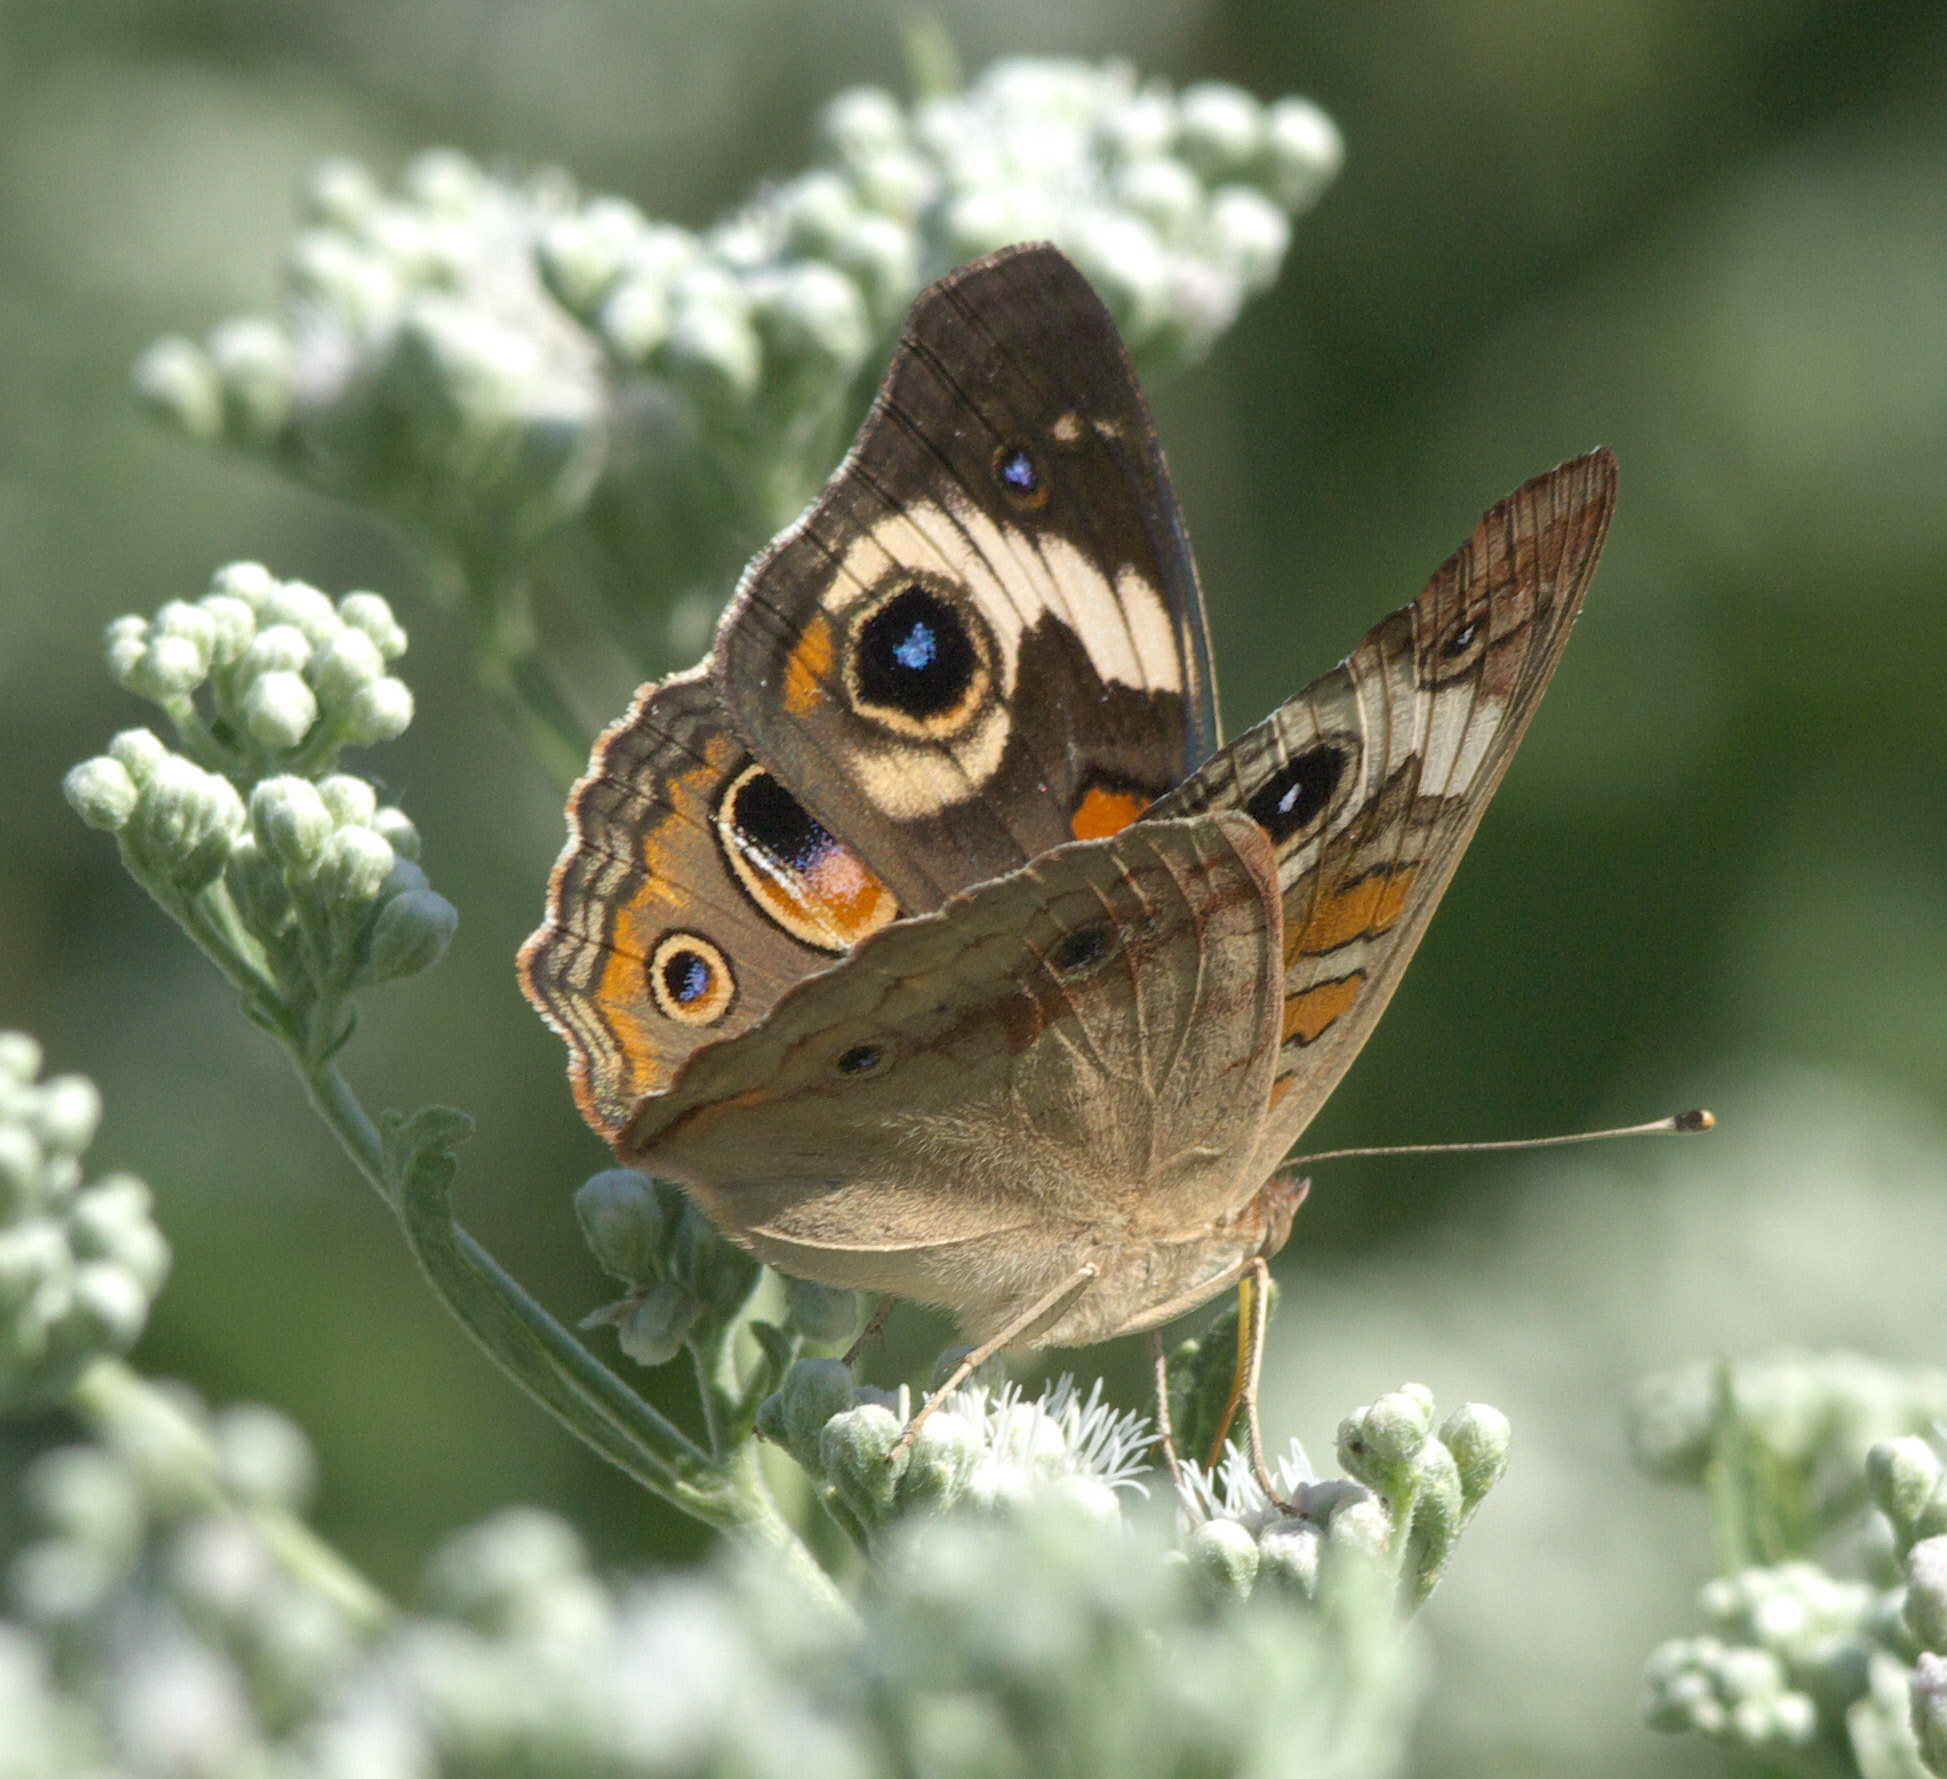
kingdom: Animalia
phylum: Arthropoda
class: Insecta
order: Lepidoptera
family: Nymphalidae
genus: Junonia
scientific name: Junonia coenia
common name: Common buckeye
